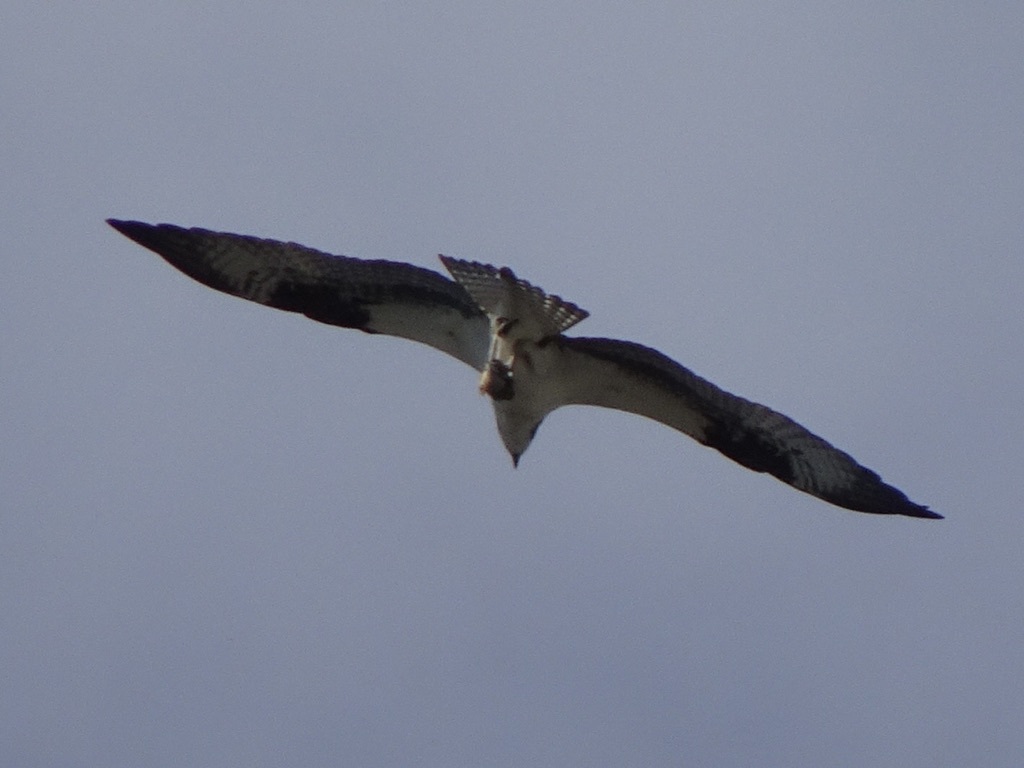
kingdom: Animalia
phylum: Chordata
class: Aves
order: Accipitriformes
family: Pandionidae
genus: Pandion
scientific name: Pandion haliaetus
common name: Osprey
